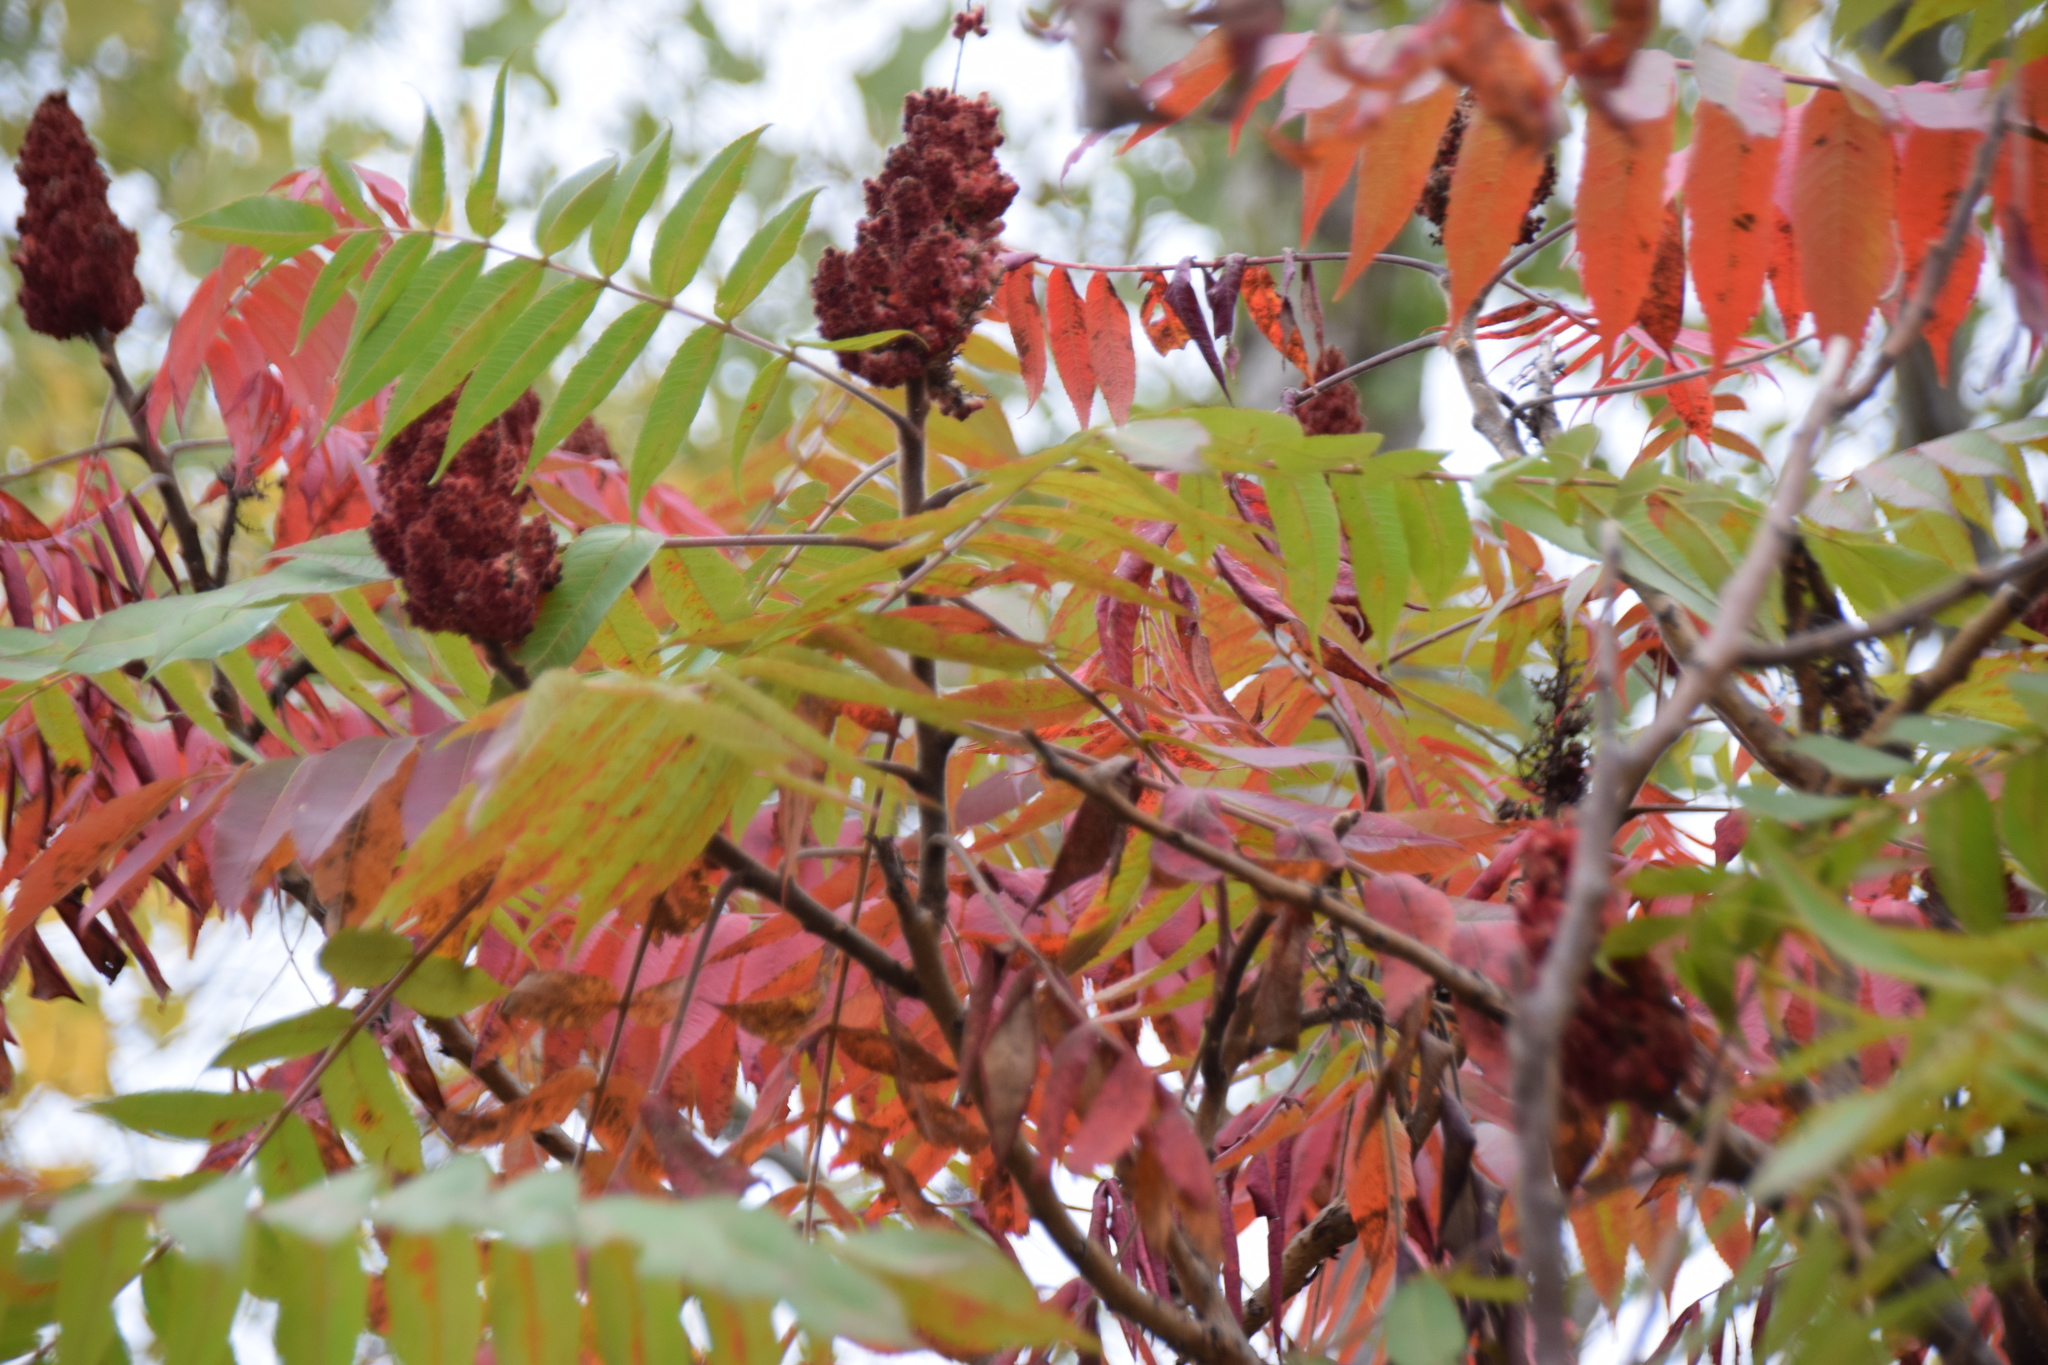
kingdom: Plantae
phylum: Tracheophyta
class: Magnoliopsida
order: Sapindales
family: Anacardiaceae
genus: Rhus
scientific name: Rhus typhina
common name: Staghorn sumac
